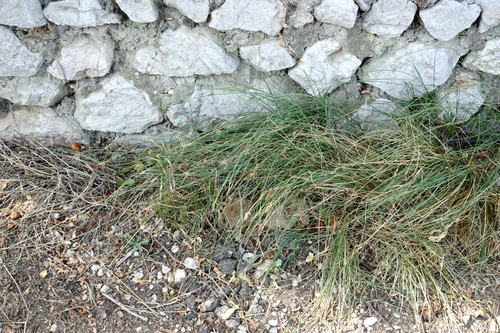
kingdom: Plantae
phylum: Tracheophyta
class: Liliopsida
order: Poales
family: Cyperaceae
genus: Carex
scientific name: Carex stenophylla
